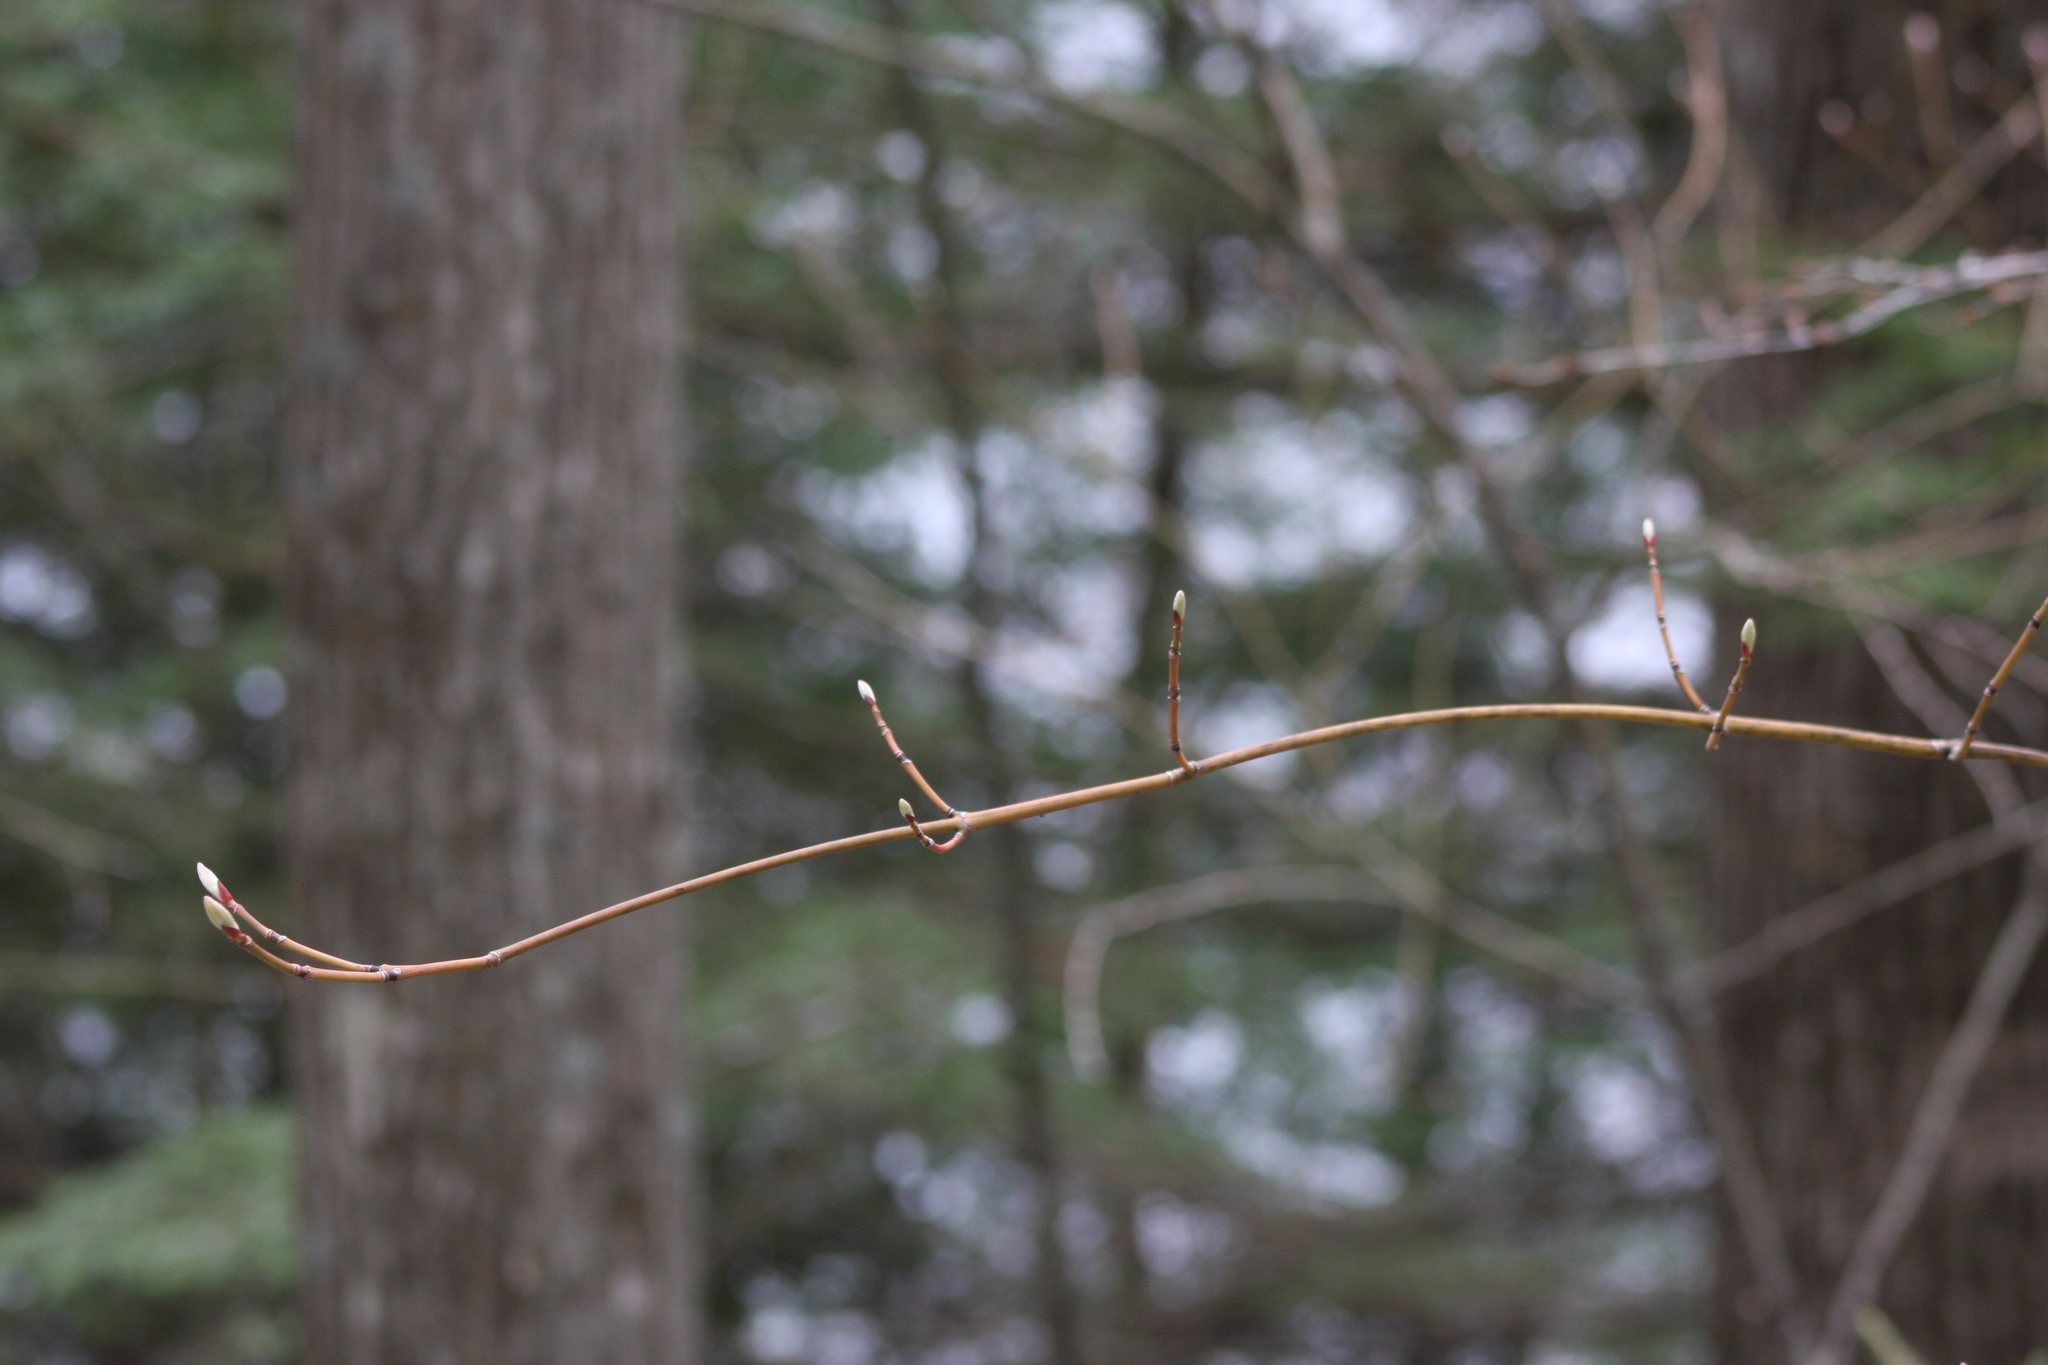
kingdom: Plantae
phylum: Tracheophyta
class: Magnoliopsida
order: Sapindales
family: Sapindaceae
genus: Acer
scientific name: Acer pensylvanicum
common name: Moosewood
